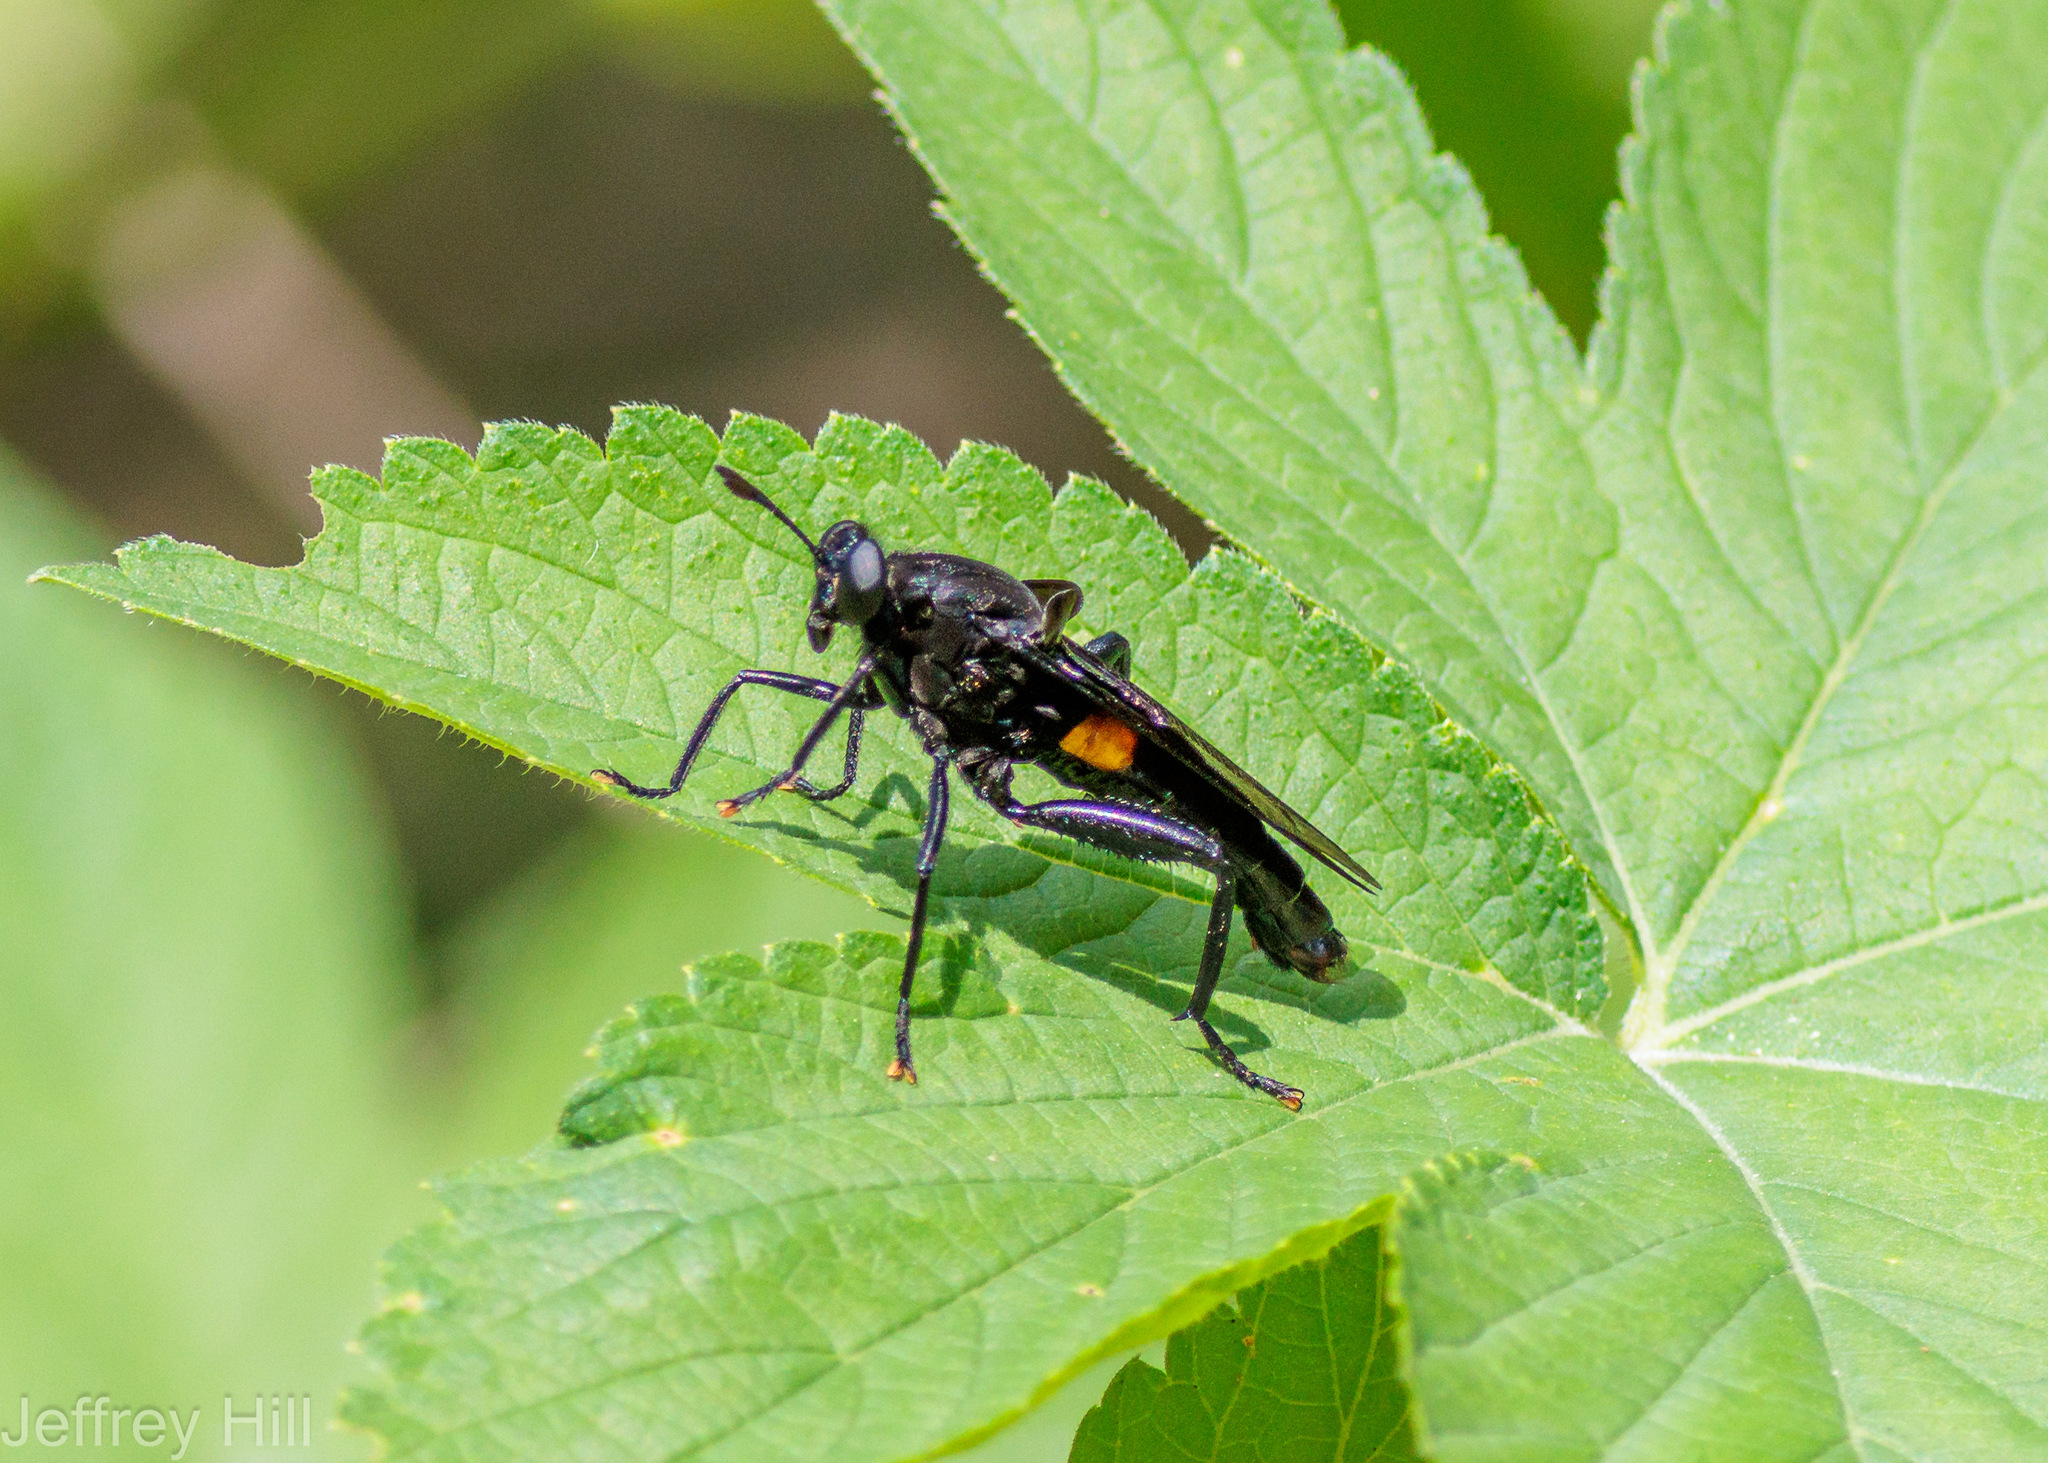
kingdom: Animalia
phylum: Arthropoda
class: Insecta
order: Diptera
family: Mydidae
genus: Mydas
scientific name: Mydas clavatus
